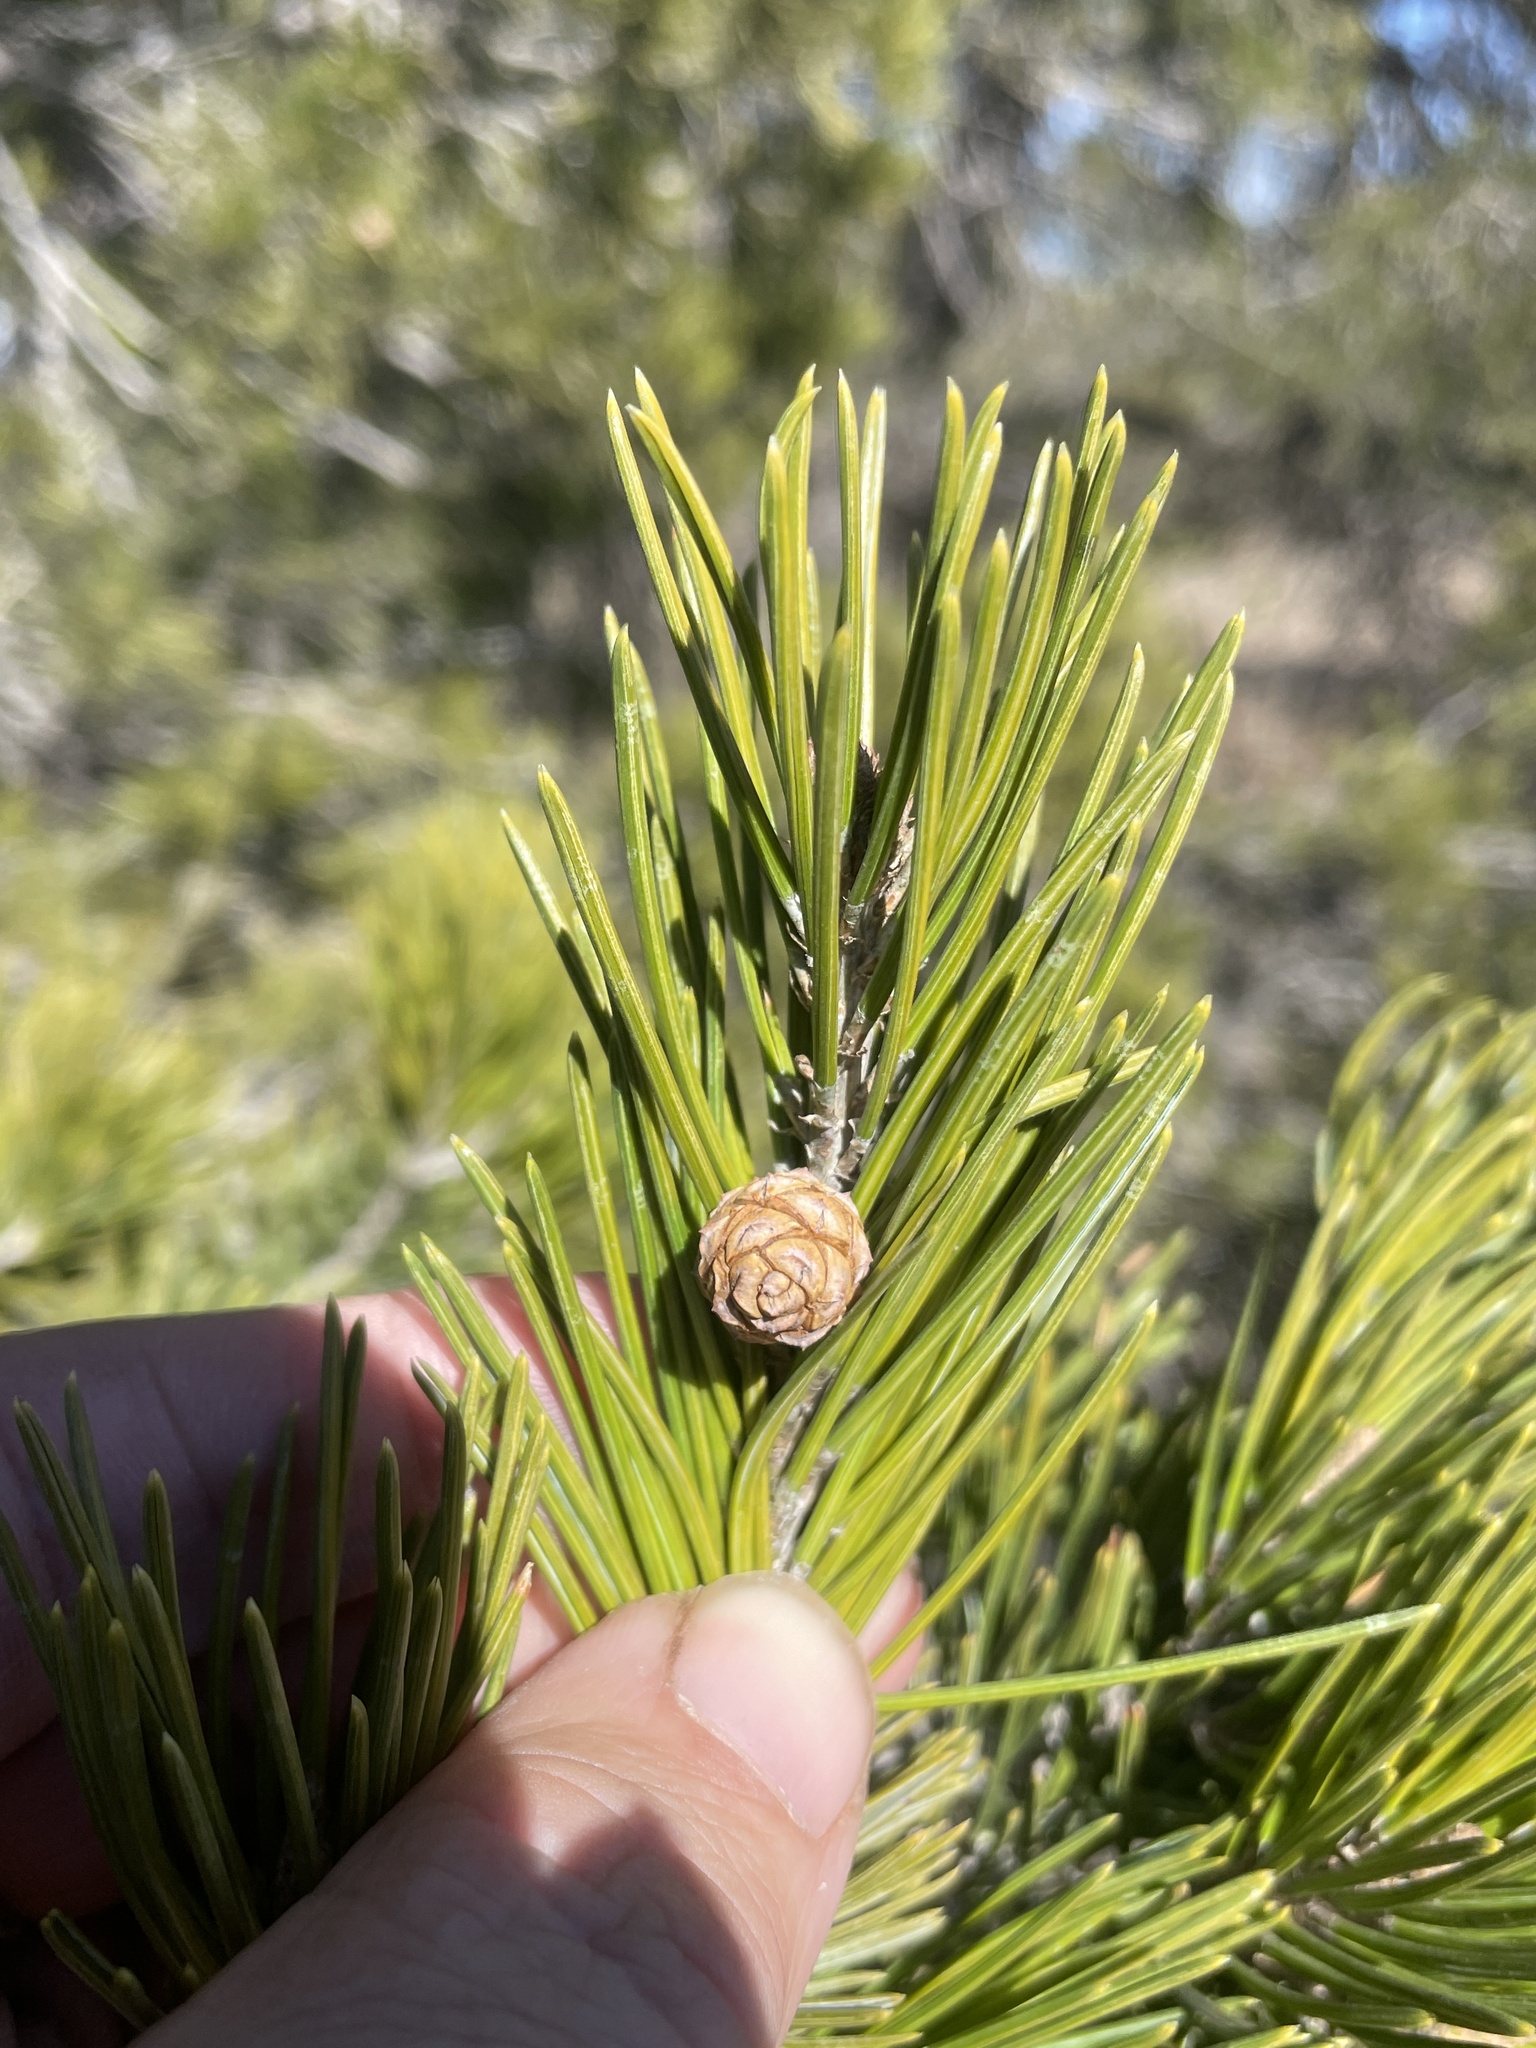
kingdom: Plantae
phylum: Tracheophyta
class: Pinopsida
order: Pinales
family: Pinaceae
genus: Pinus
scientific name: Pinus remota
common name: Nut pine
